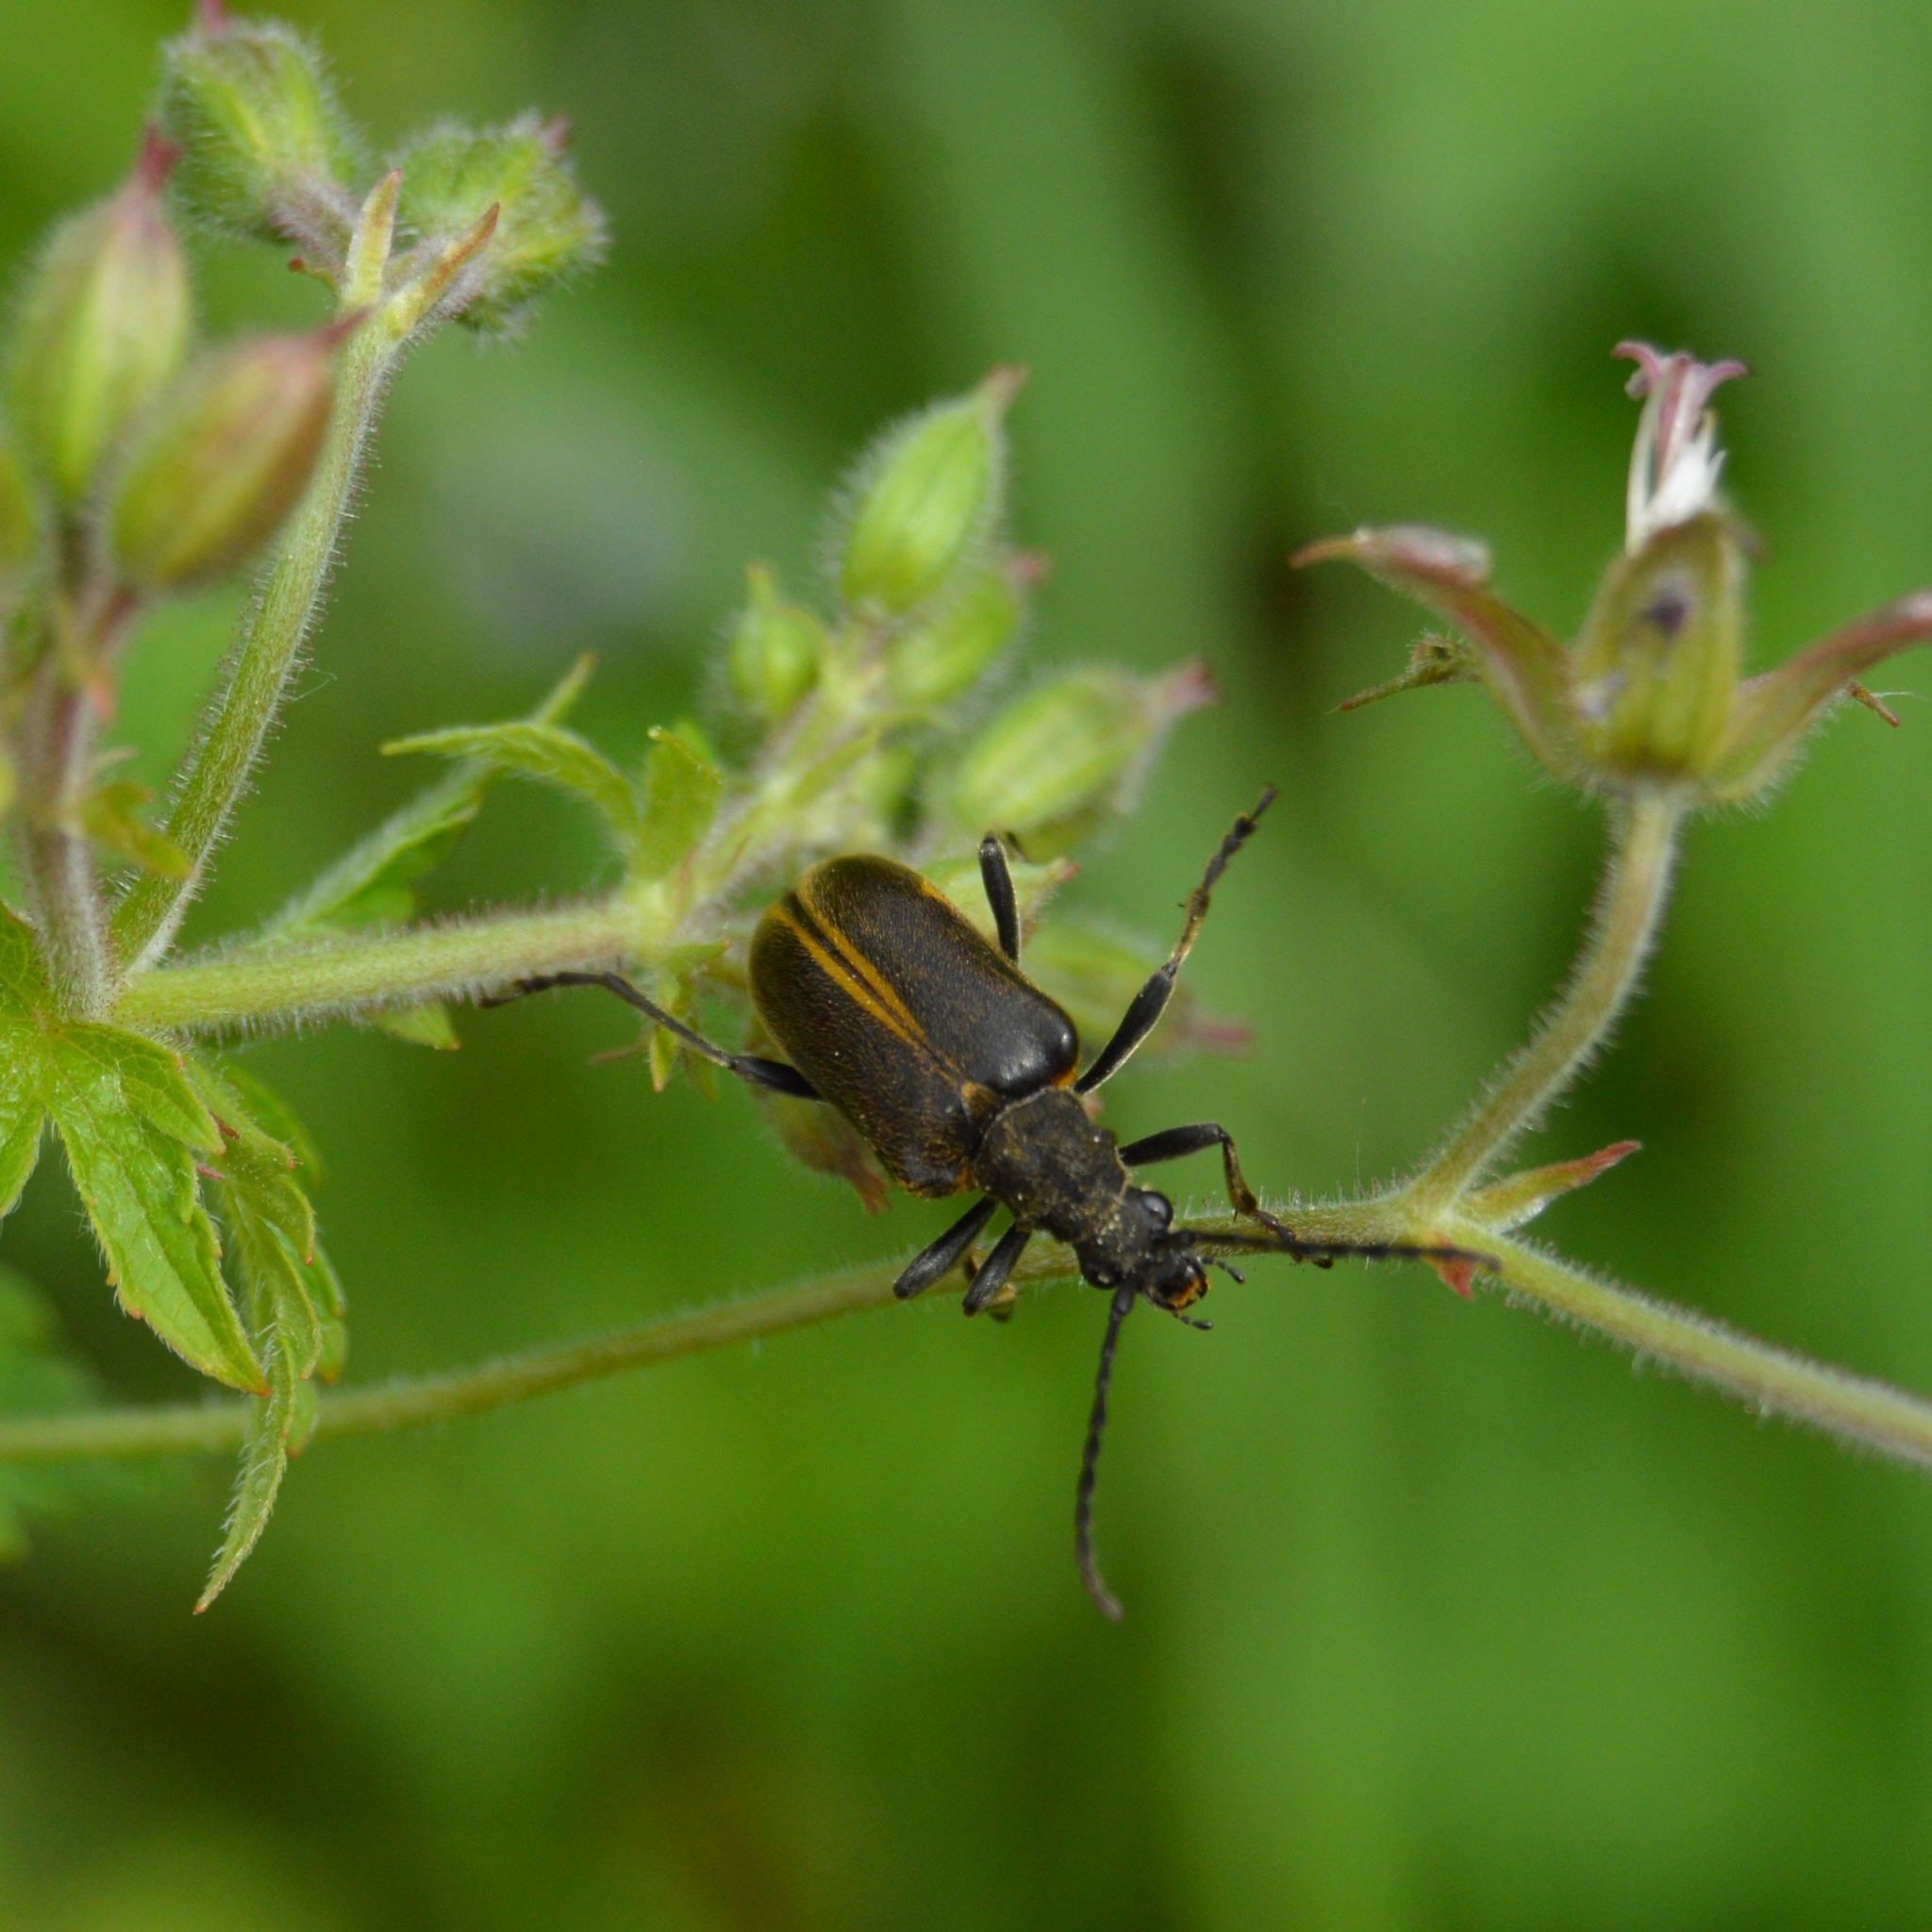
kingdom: Animalia
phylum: Arthropoda
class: Insecta
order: Coleoptera
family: Cerambycidae
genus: Brachyta
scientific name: Brachyta interrogationis
